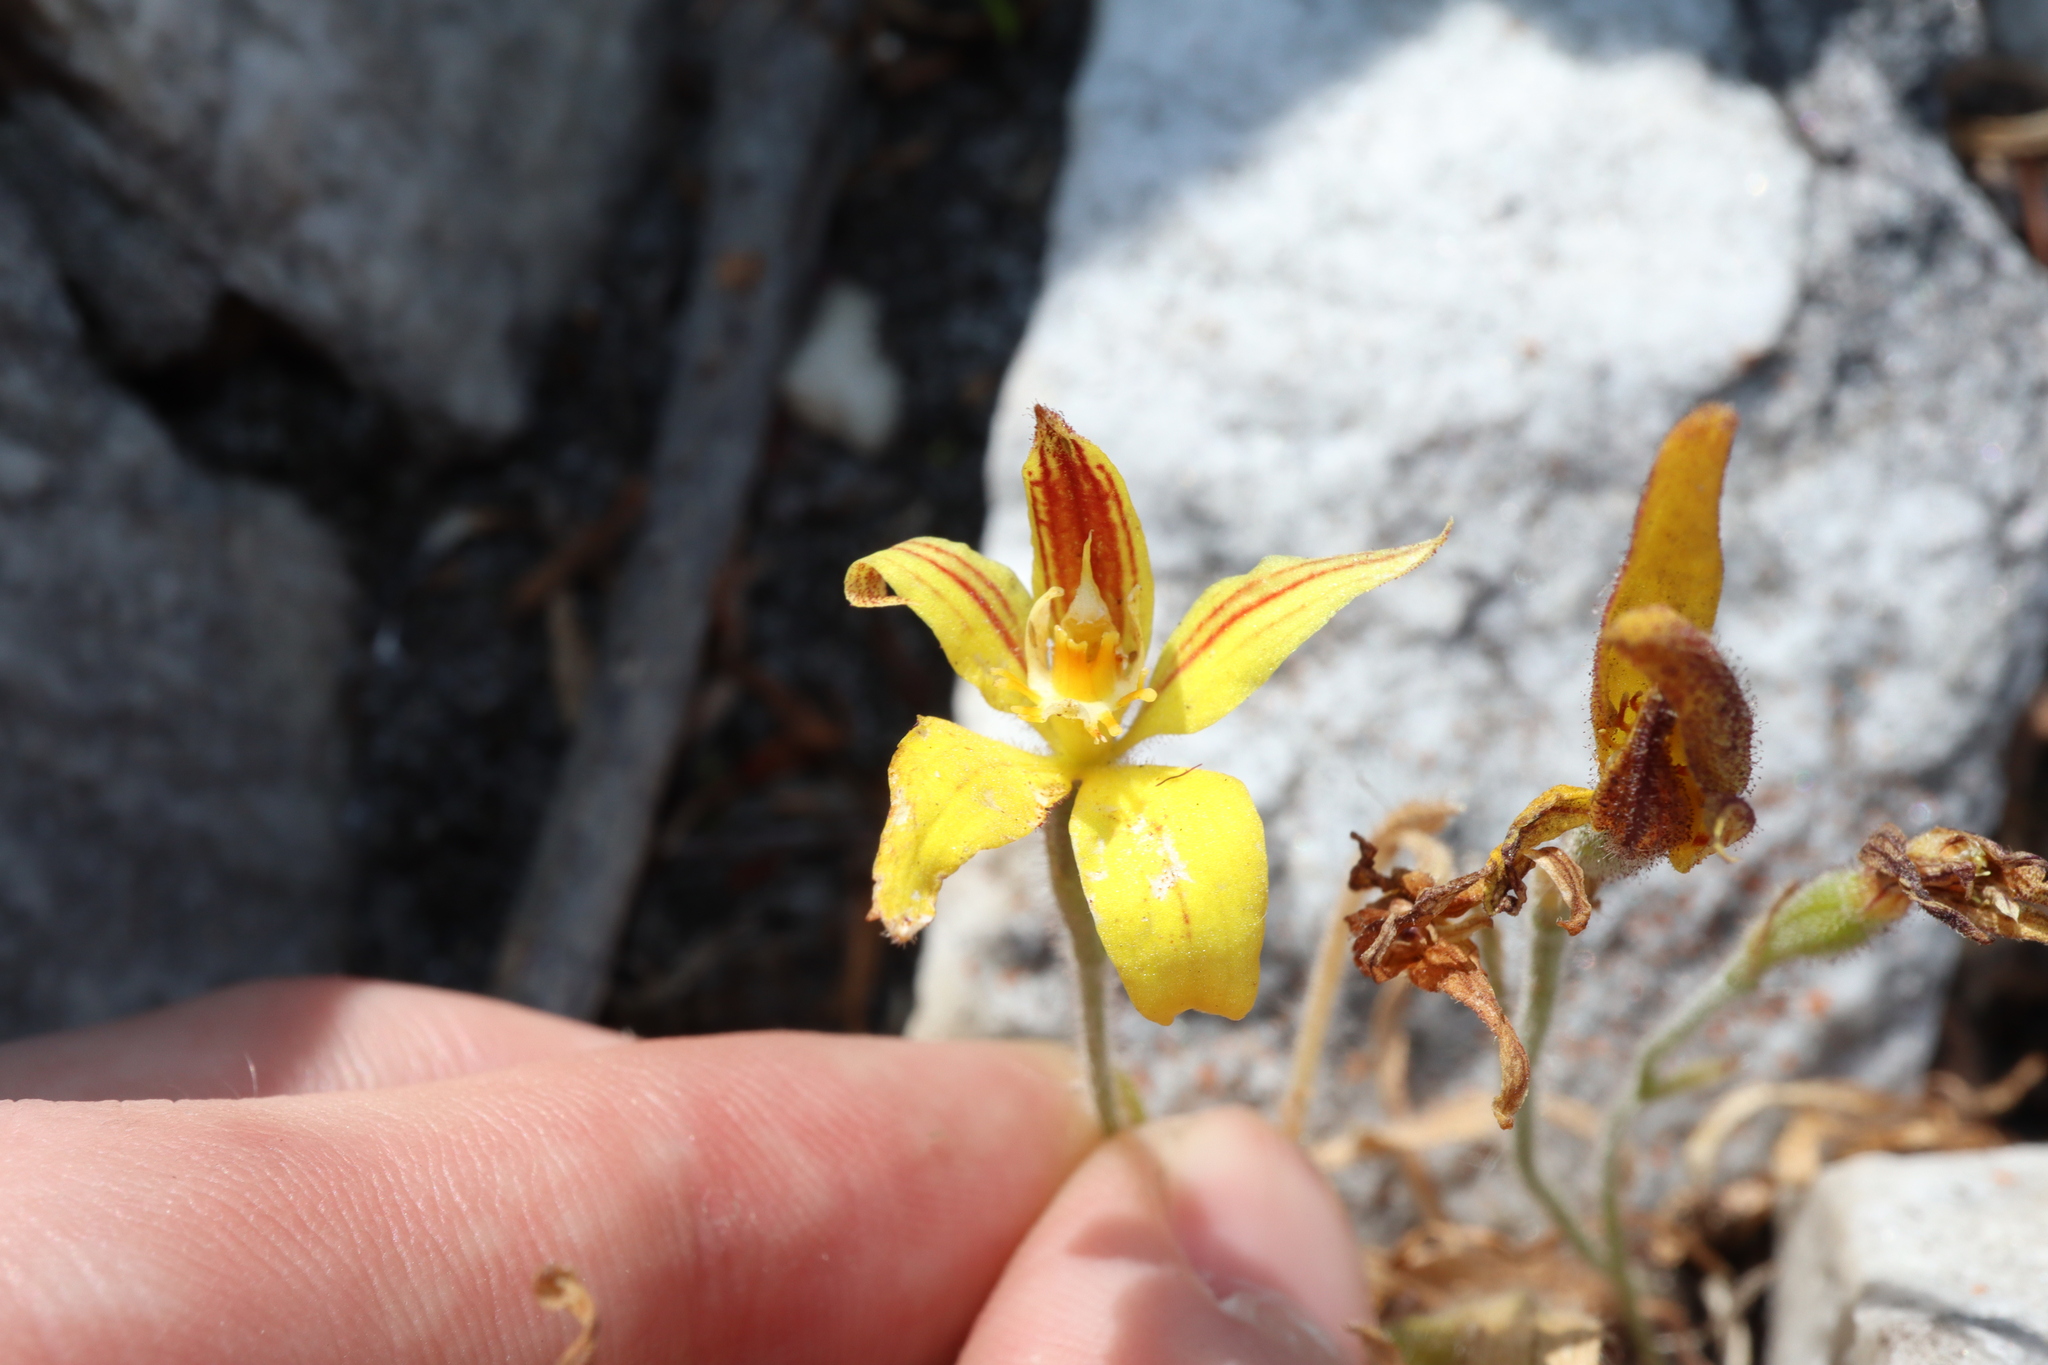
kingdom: Plantae
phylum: Tracheophyta
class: Liliopsida
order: Asparagales
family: Orchidaceae
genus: Caladenia
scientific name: Caladenia flava
